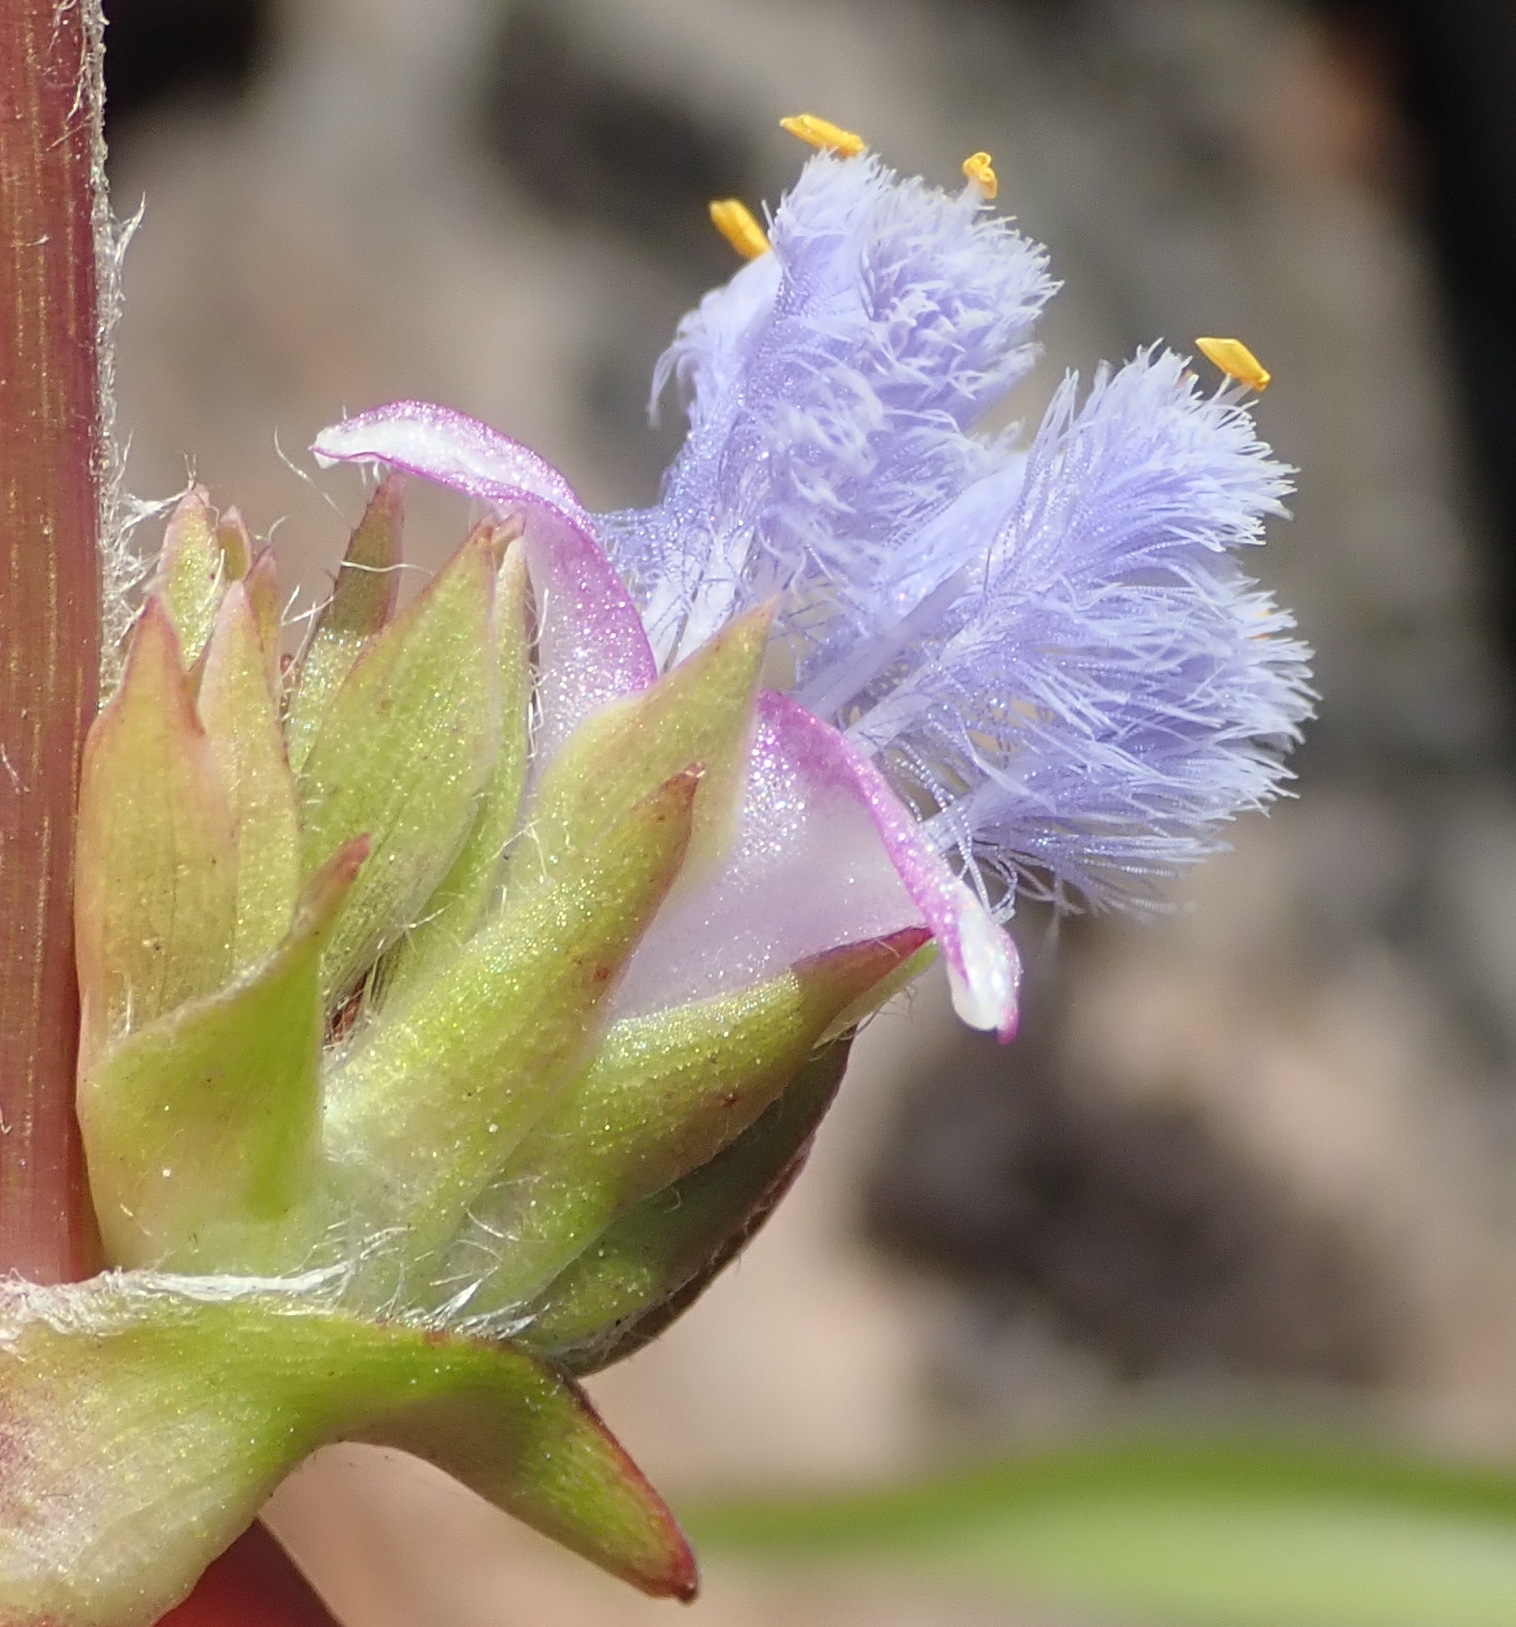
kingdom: Plantae
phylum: Tracheophyta
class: Liliopsida
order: Commelinales
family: Commelinaceae
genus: Cyanotis
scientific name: Cyanotis speciosa
